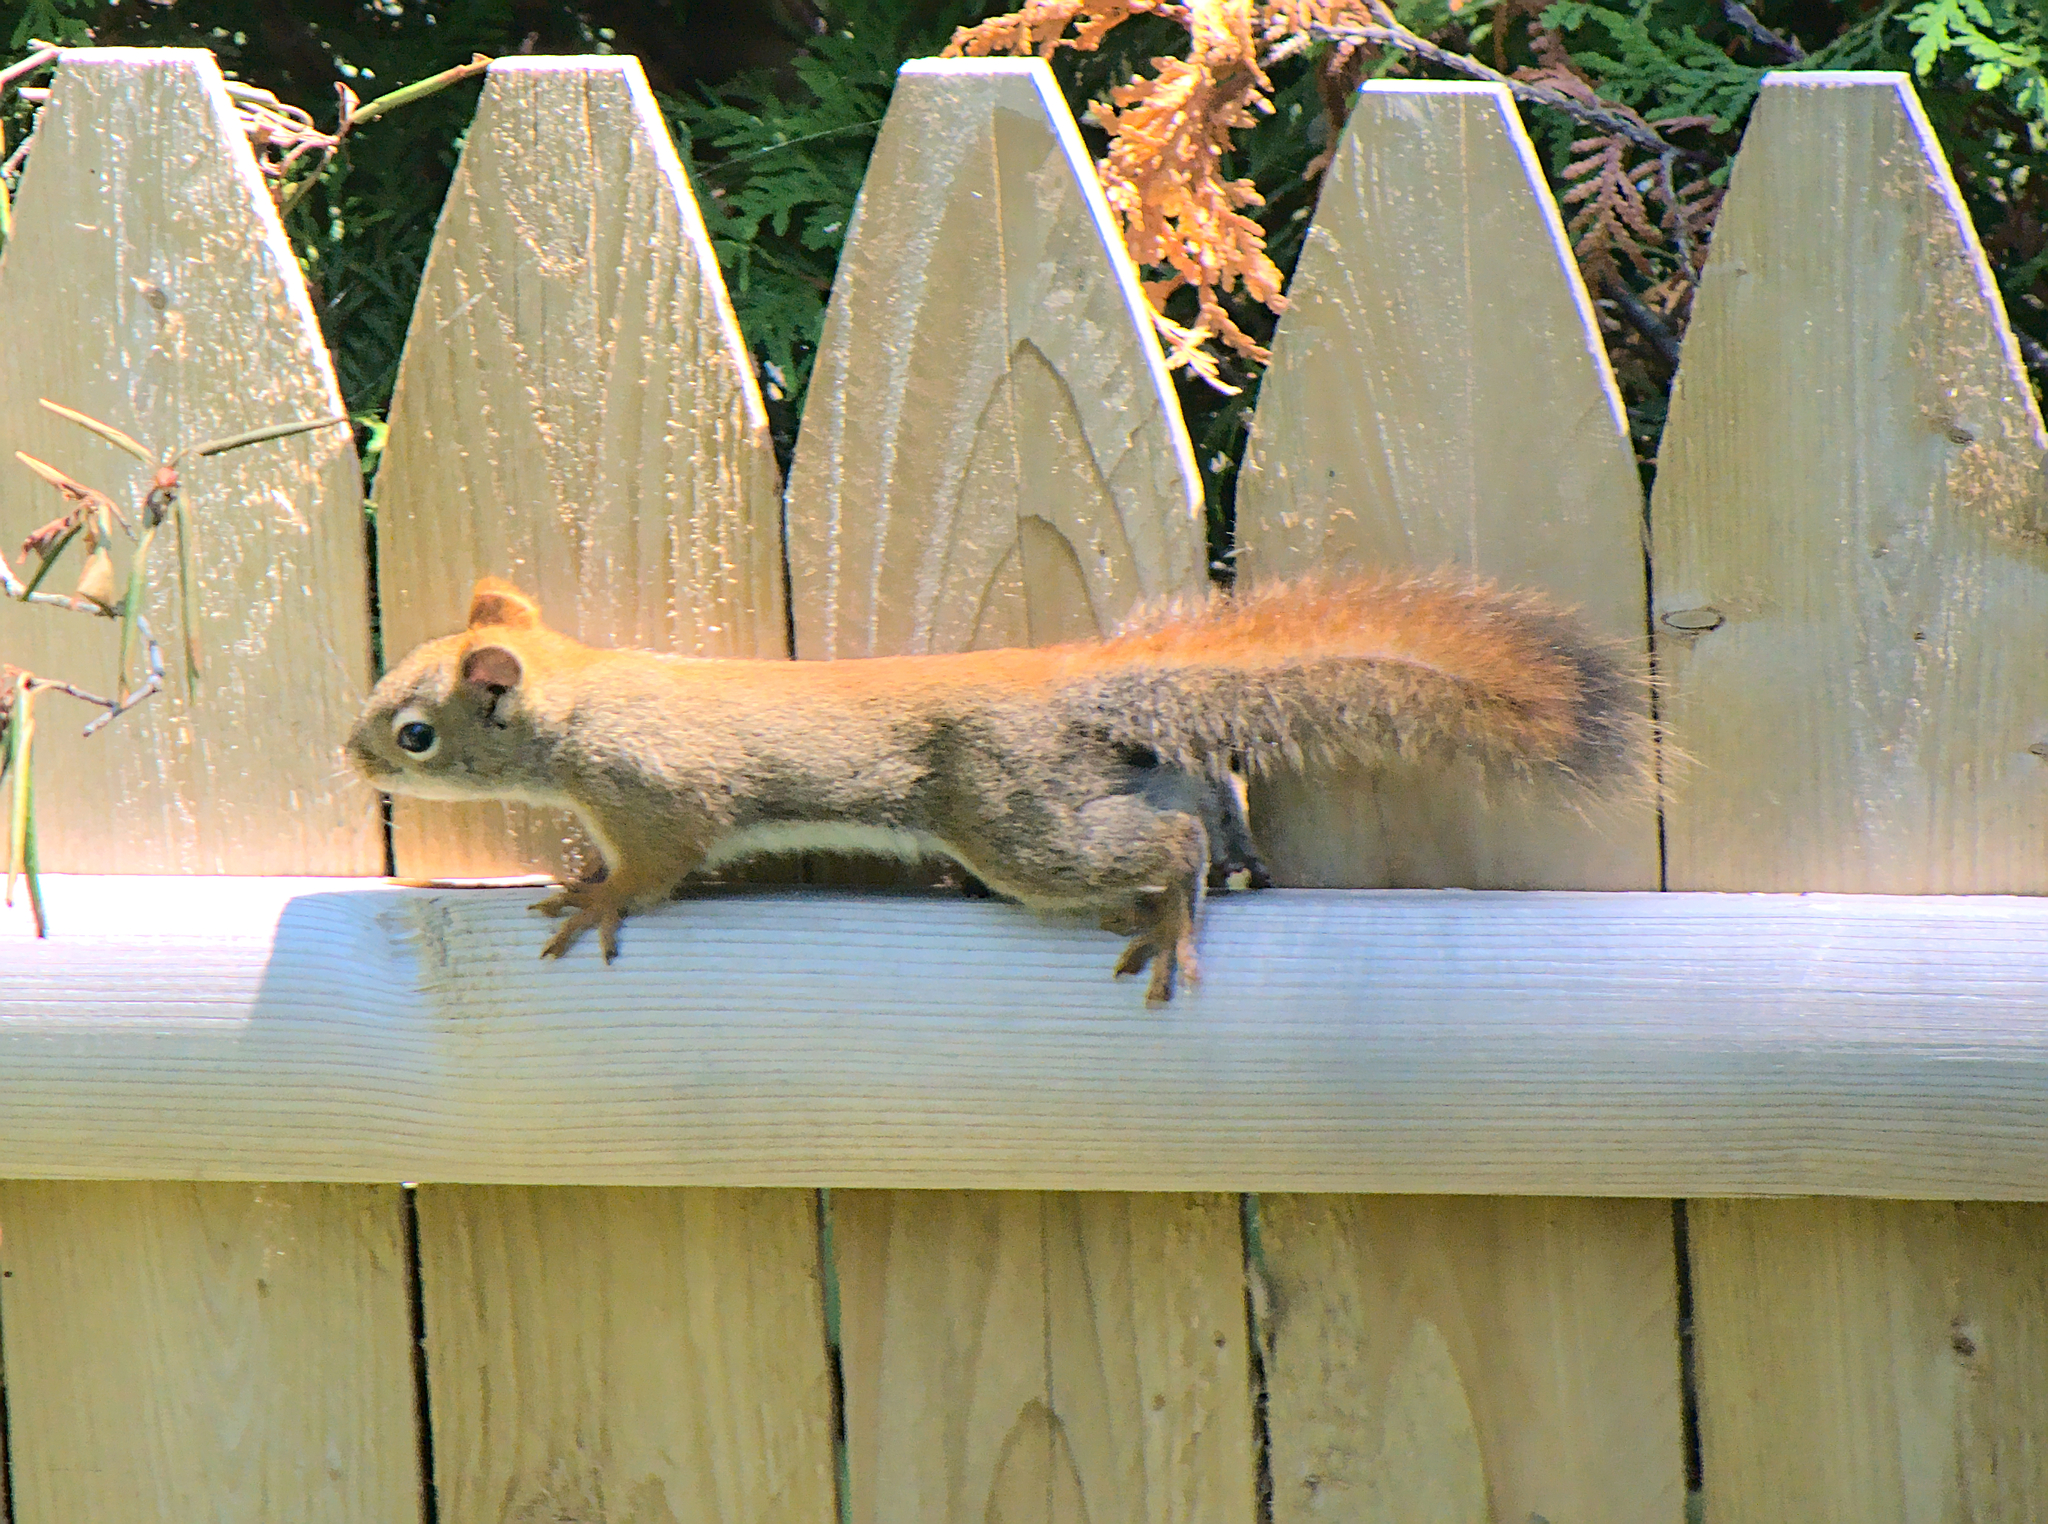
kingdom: Animalia
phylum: Chordata
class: Mammalia
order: Rodentia
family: Sciuridae
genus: Tamiasciurus
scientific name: Tamiasciurus hudsonicus
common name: Red squirrel
